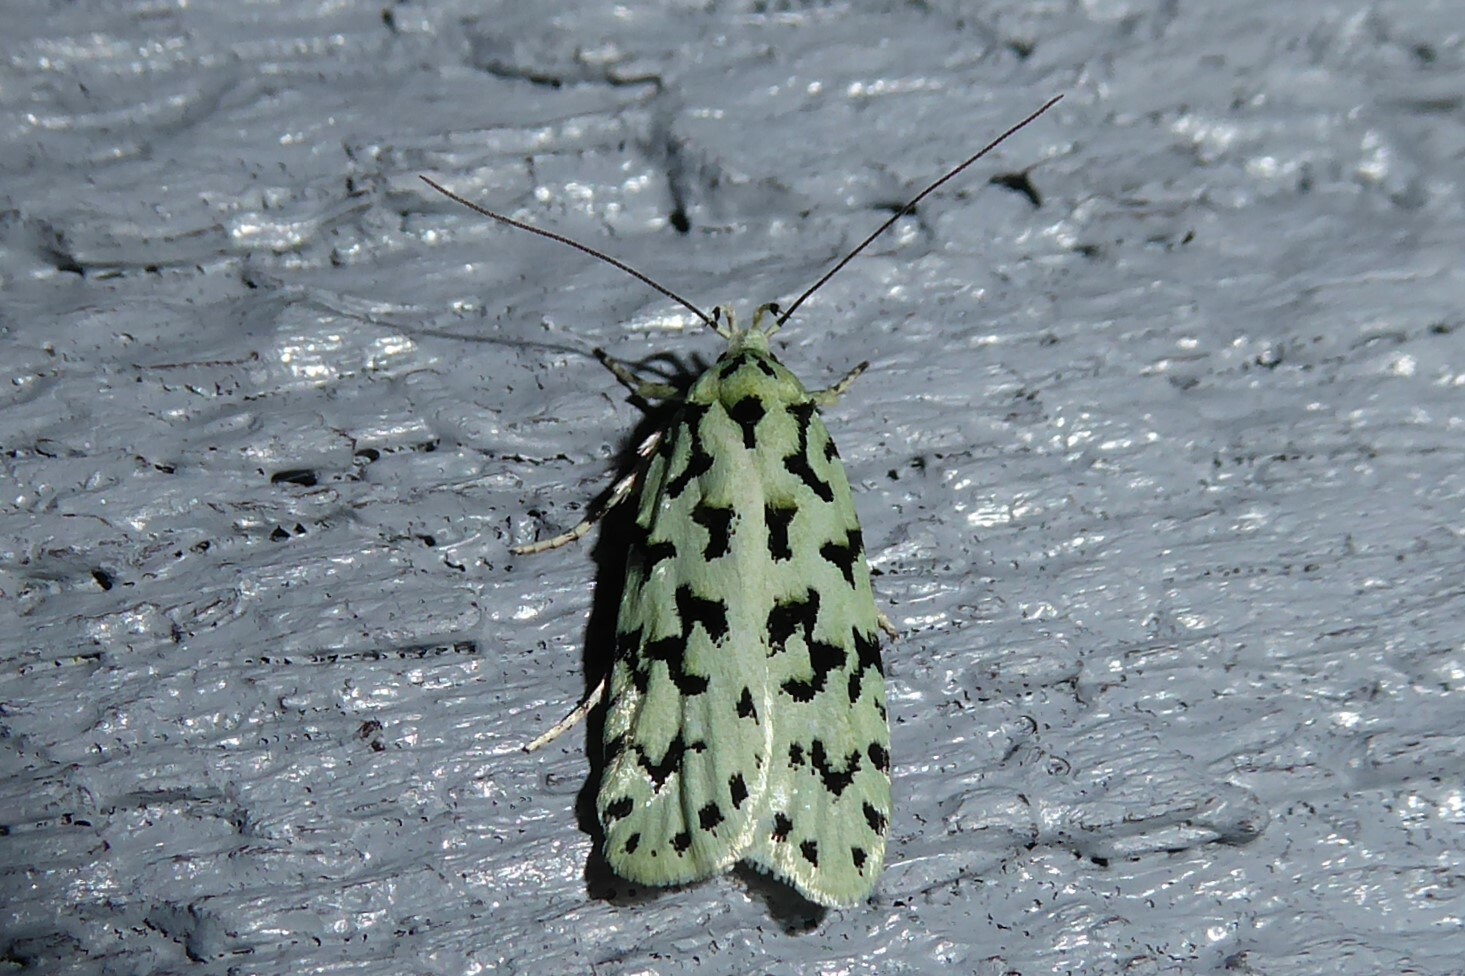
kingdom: Animalia
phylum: Arthropoda
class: Insecta
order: Lepidoptera
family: Oecophoridae
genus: Izatha
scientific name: Izatha huttoni
